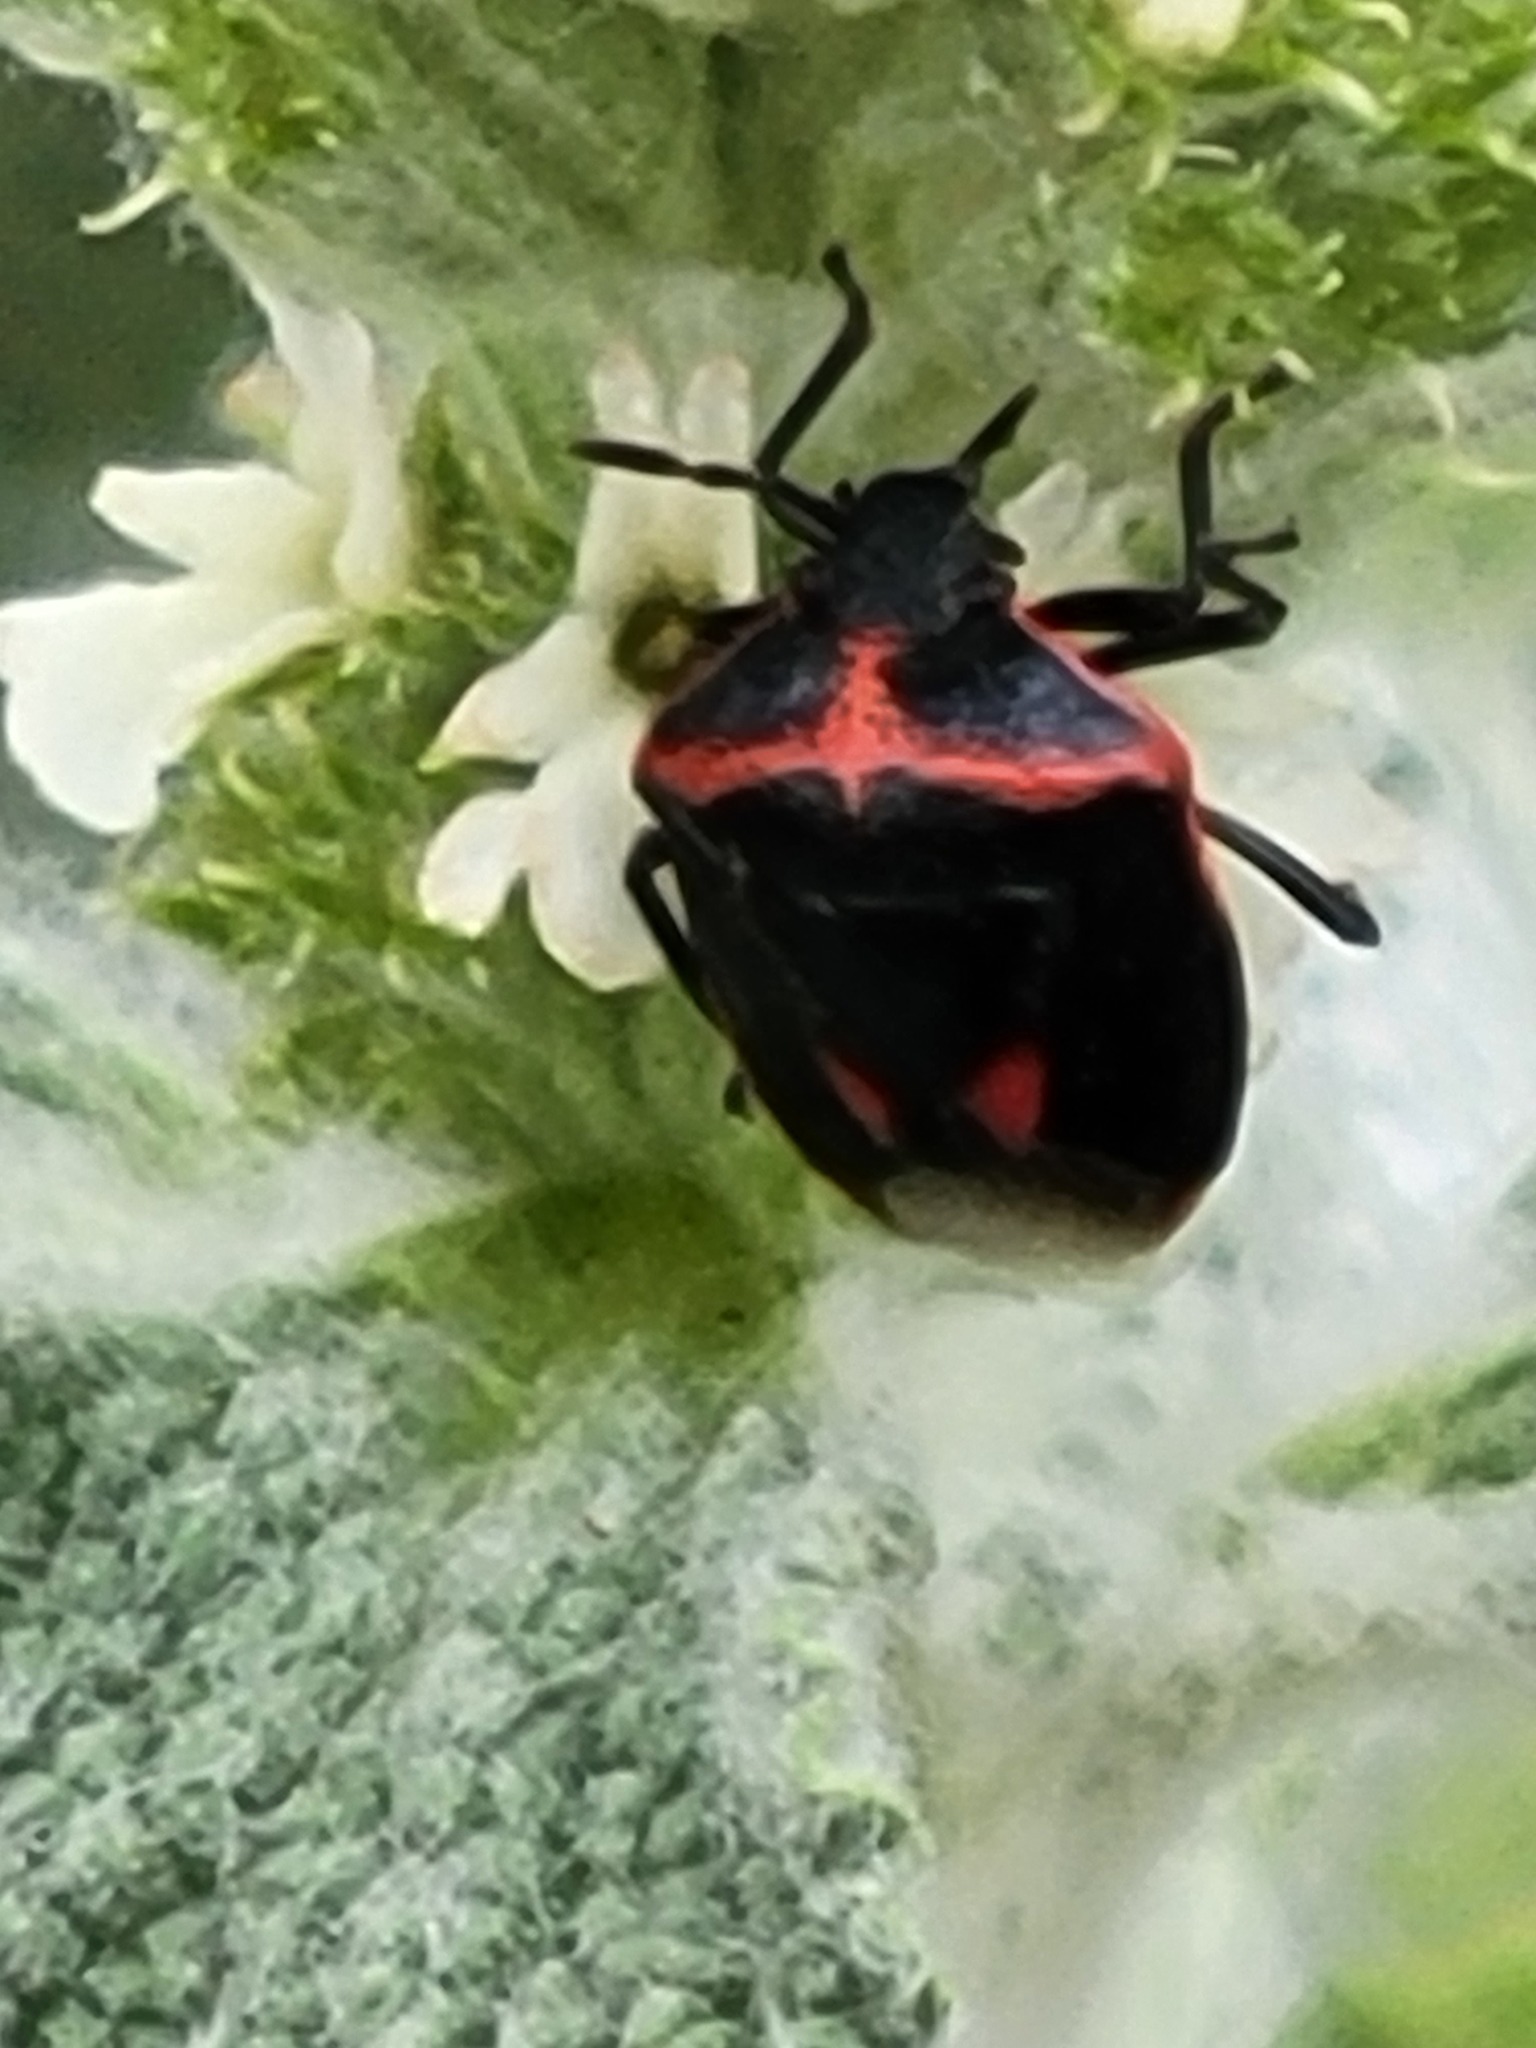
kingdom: Animalia
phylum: Arthropoda
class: Insecta
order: Hemiptera
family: Pentatomidae
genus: Cosmopepla
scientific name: Cosmopepla lintneriana
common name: Twice-stabbed stink bug
